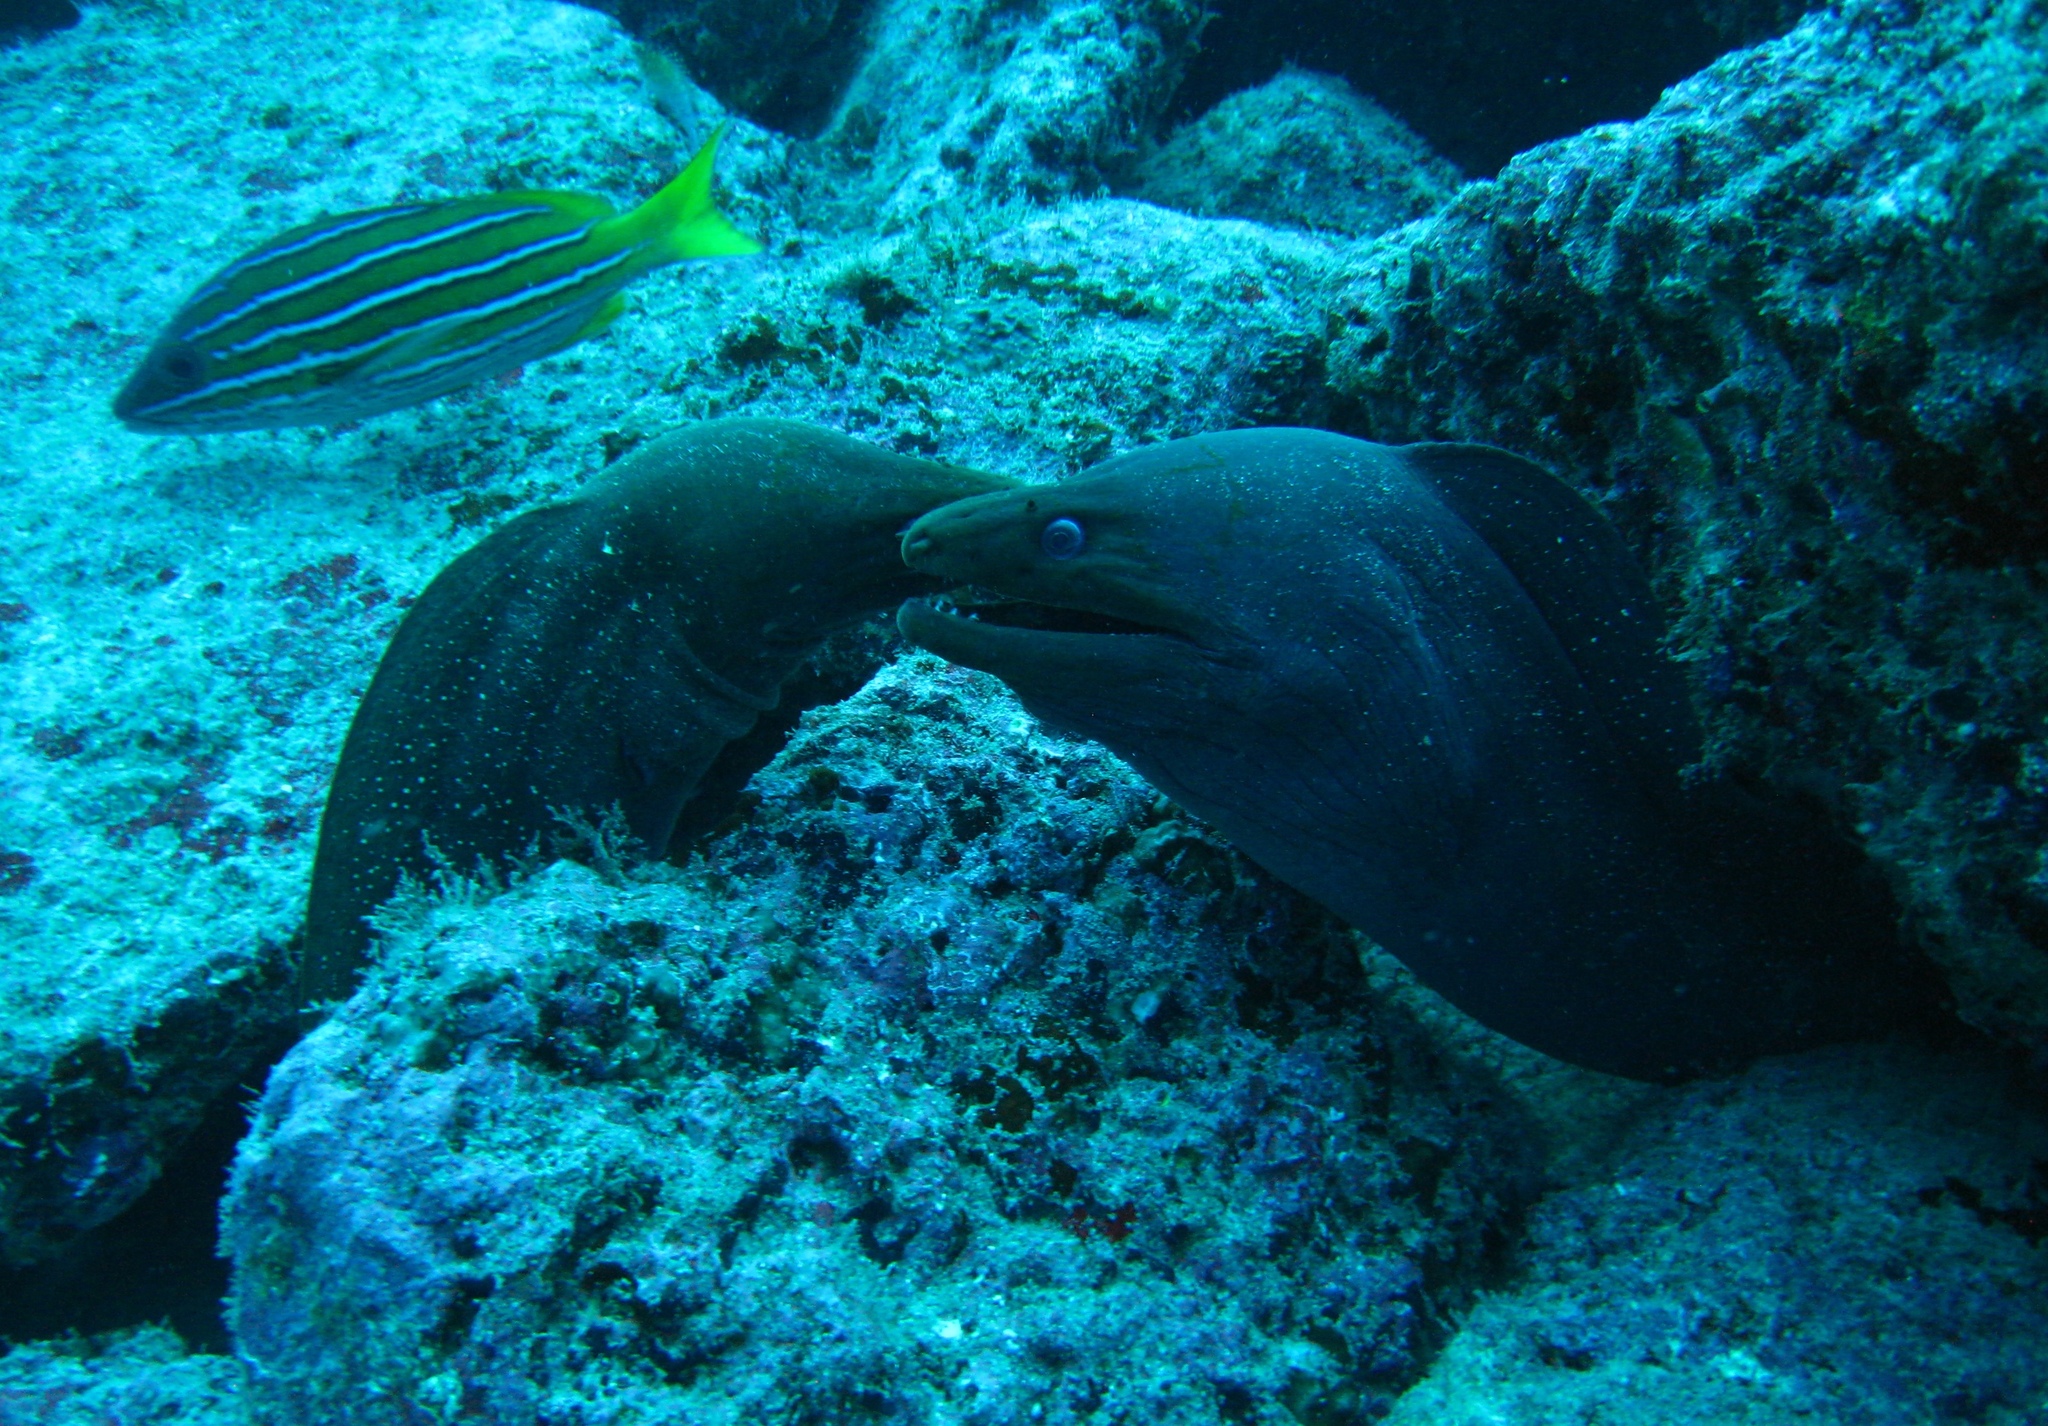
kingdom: Animalia
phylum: Chordata
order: Anguilliformes
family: Muraenidae
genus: Gymnothorax
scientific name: Gymnothorax dovii
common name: Finespotted moray
